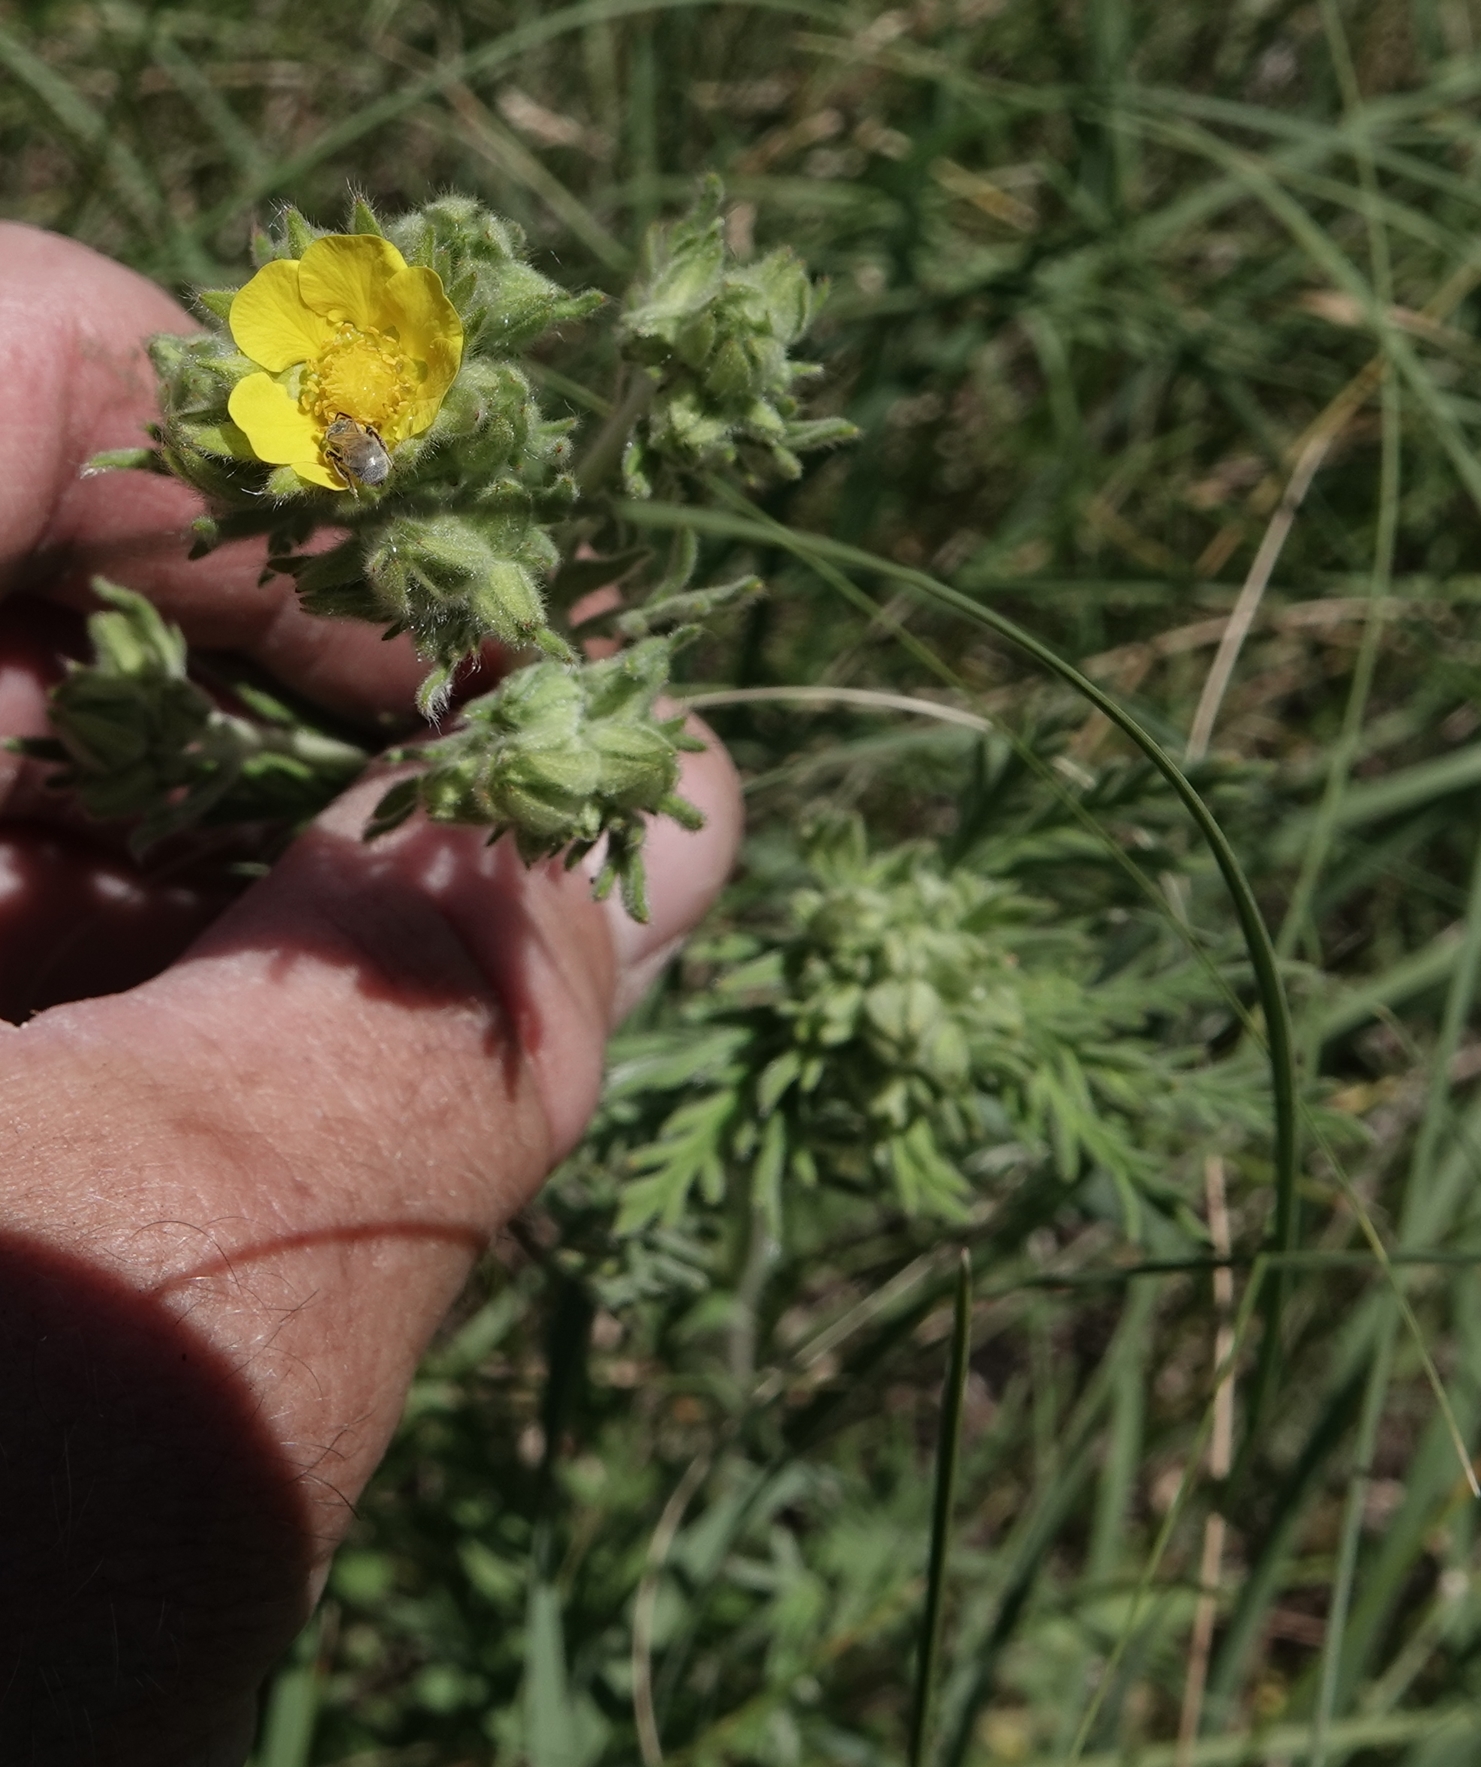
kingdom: Plantae
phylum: Tracheophyta
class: Magnoliopsida
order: Rosales
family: Rosaceae
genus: Potentilla
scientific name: Potentilla pensylvanica
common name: Pennsylvania cinquefoil
